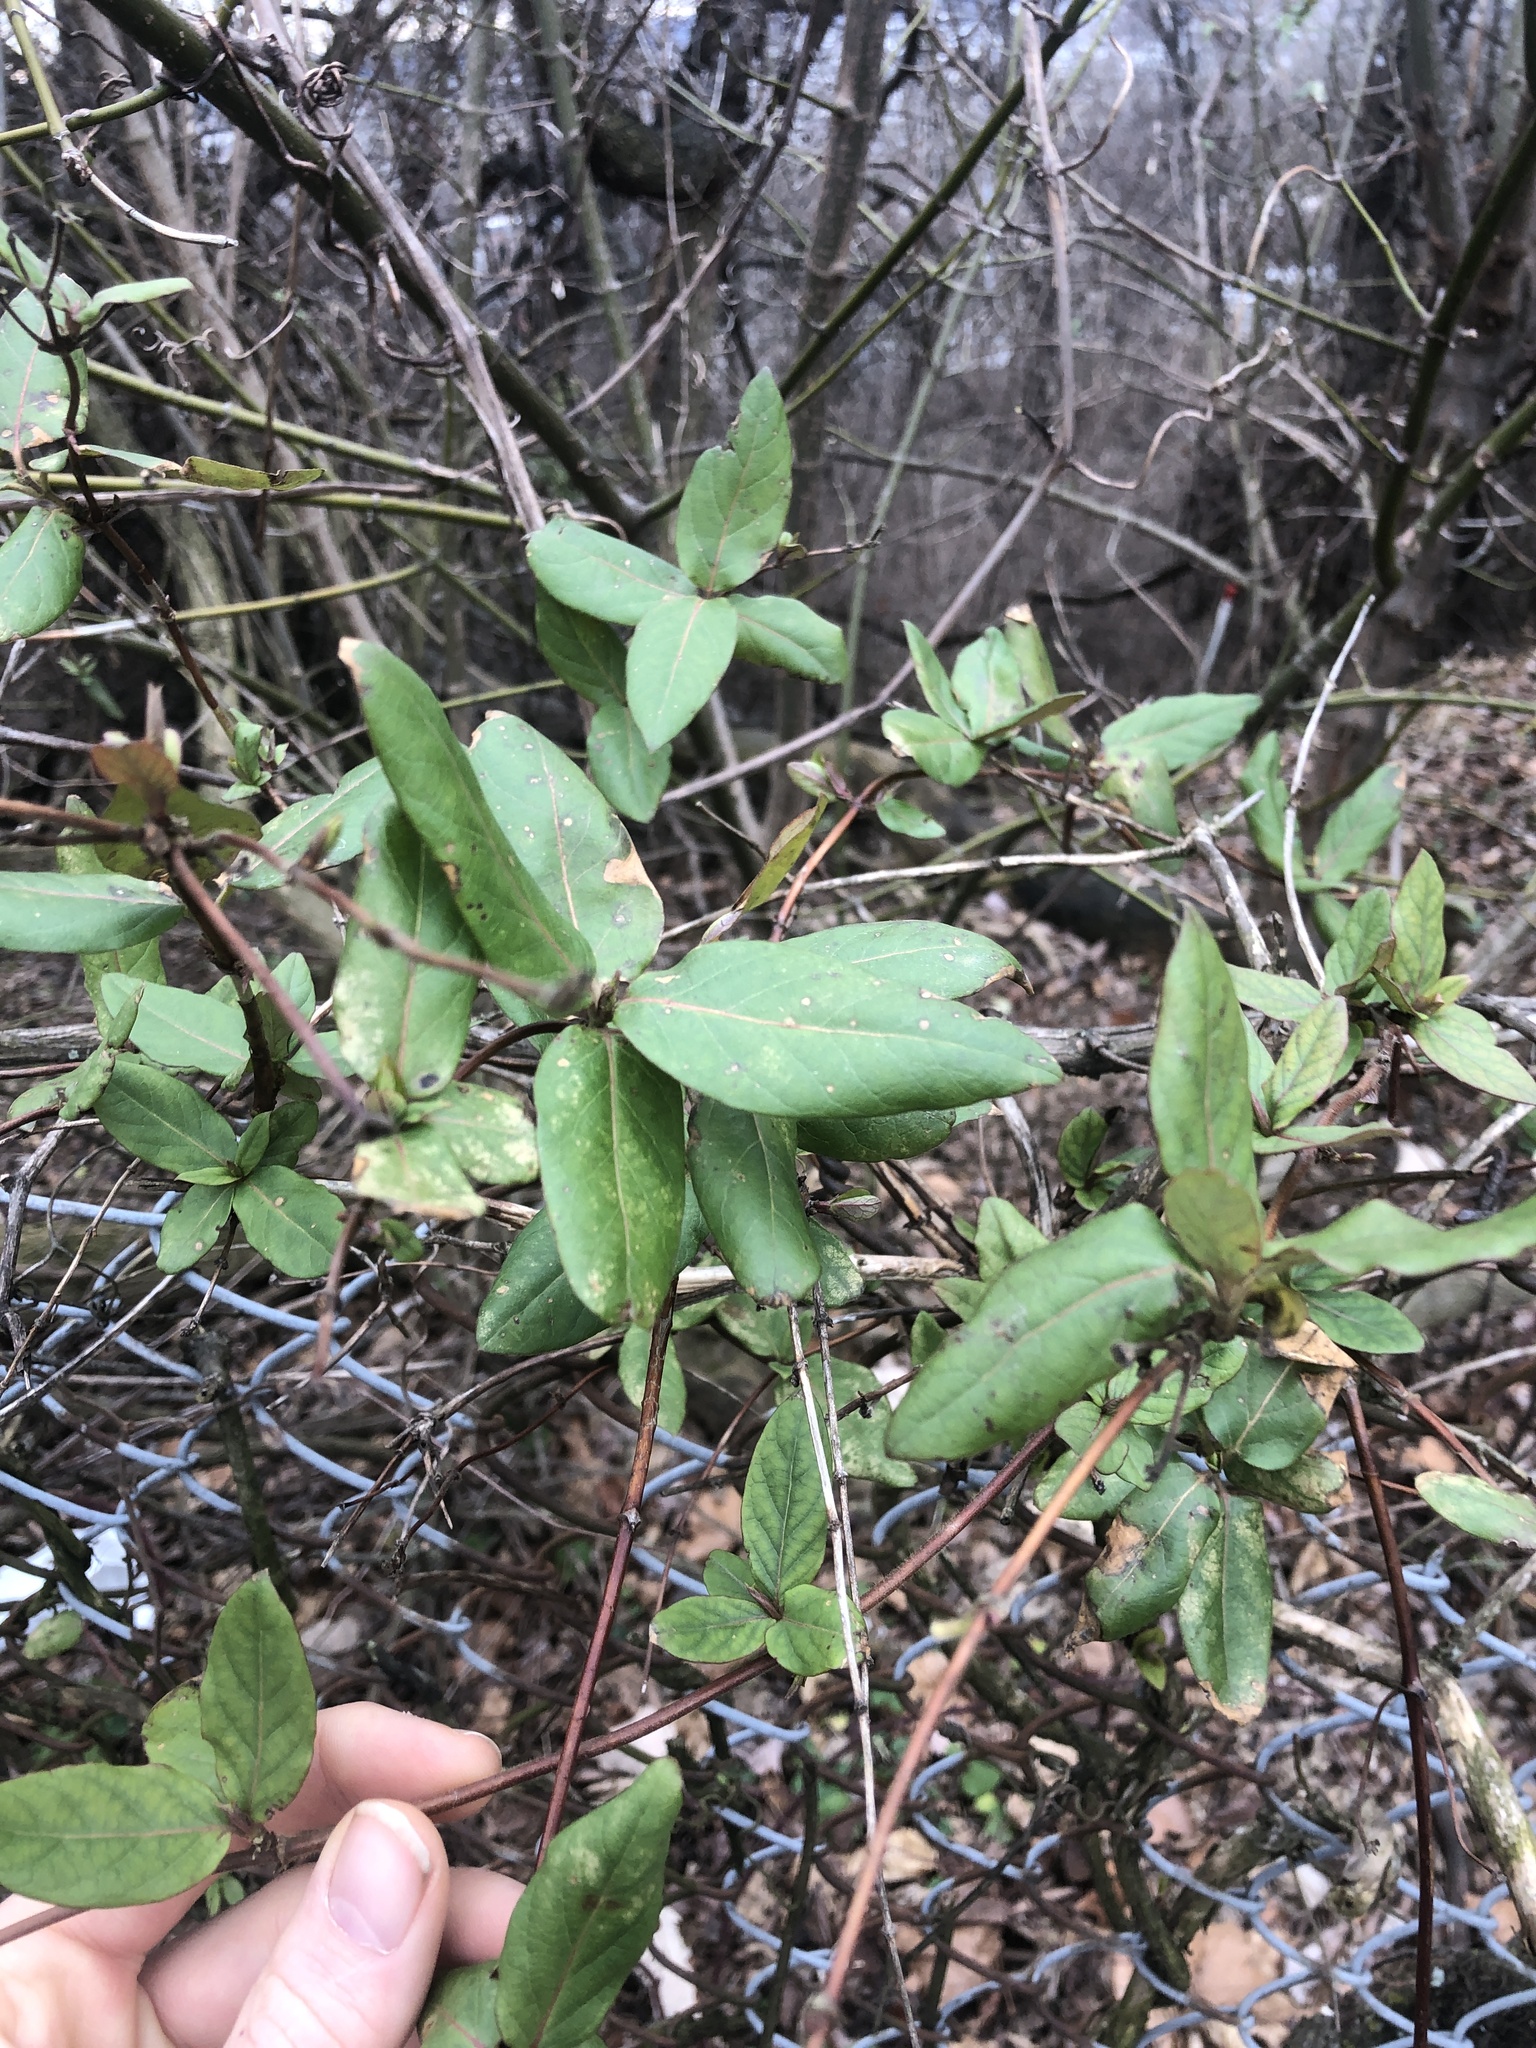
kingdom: Plantae
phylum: Tracheophyta
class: Magnoliopsida
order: Dipsacales
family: Caprifoliaceae
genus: Lonicera
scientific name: Lonicera japonica
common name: Japanese honeysuckle
